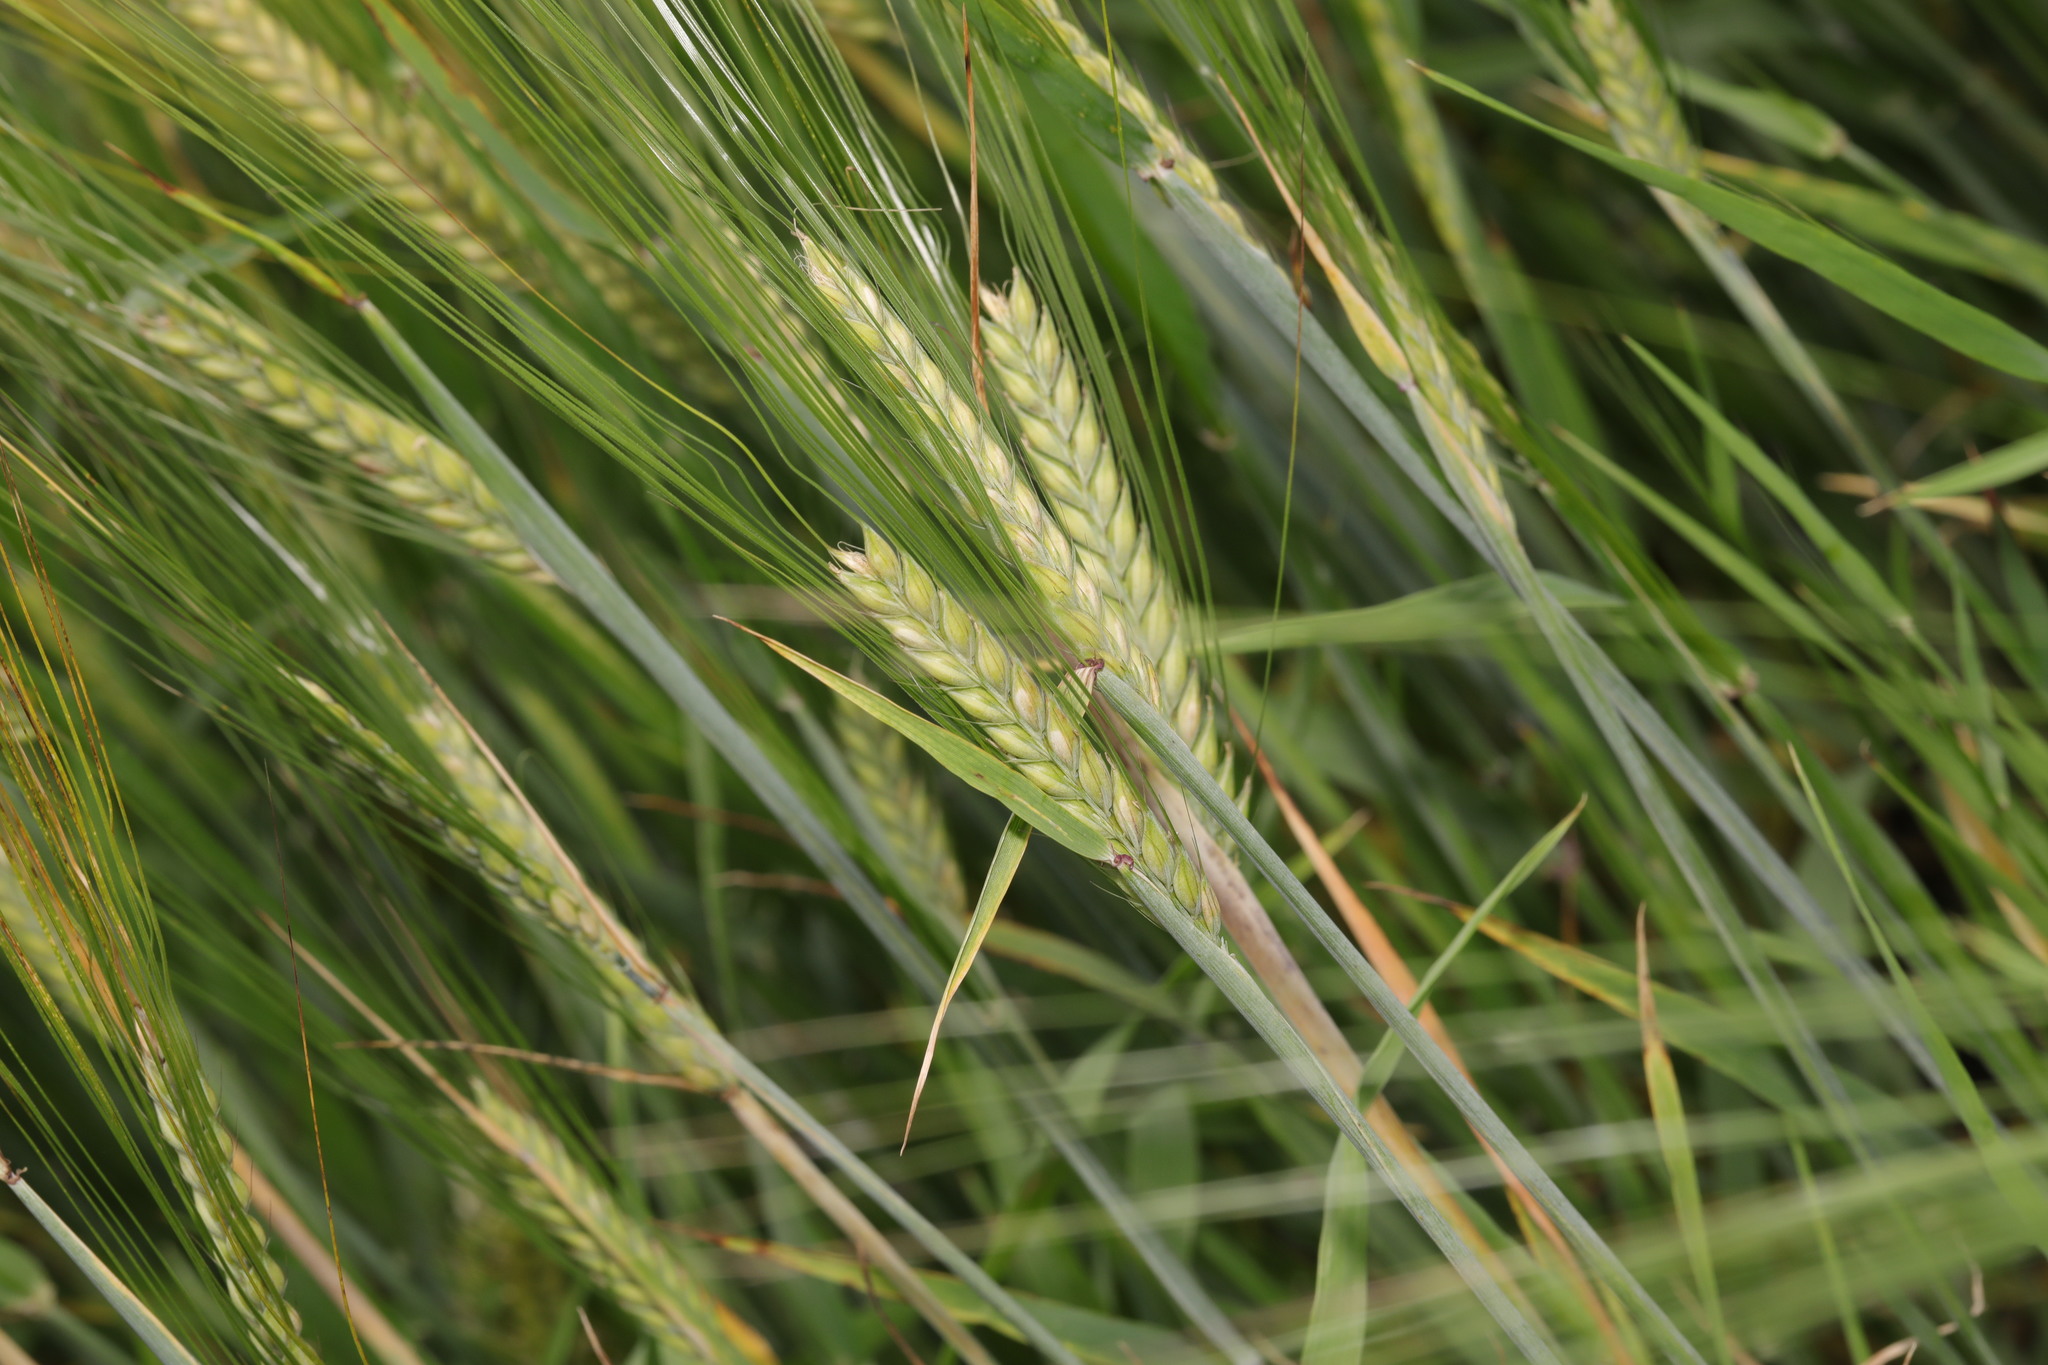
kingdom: Plantae
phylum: Tracheophyta
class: Liliopsida
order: Poales
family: Poaceae
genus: Hordeum
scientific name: Hordeum distichon
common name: Two-rowed barley
